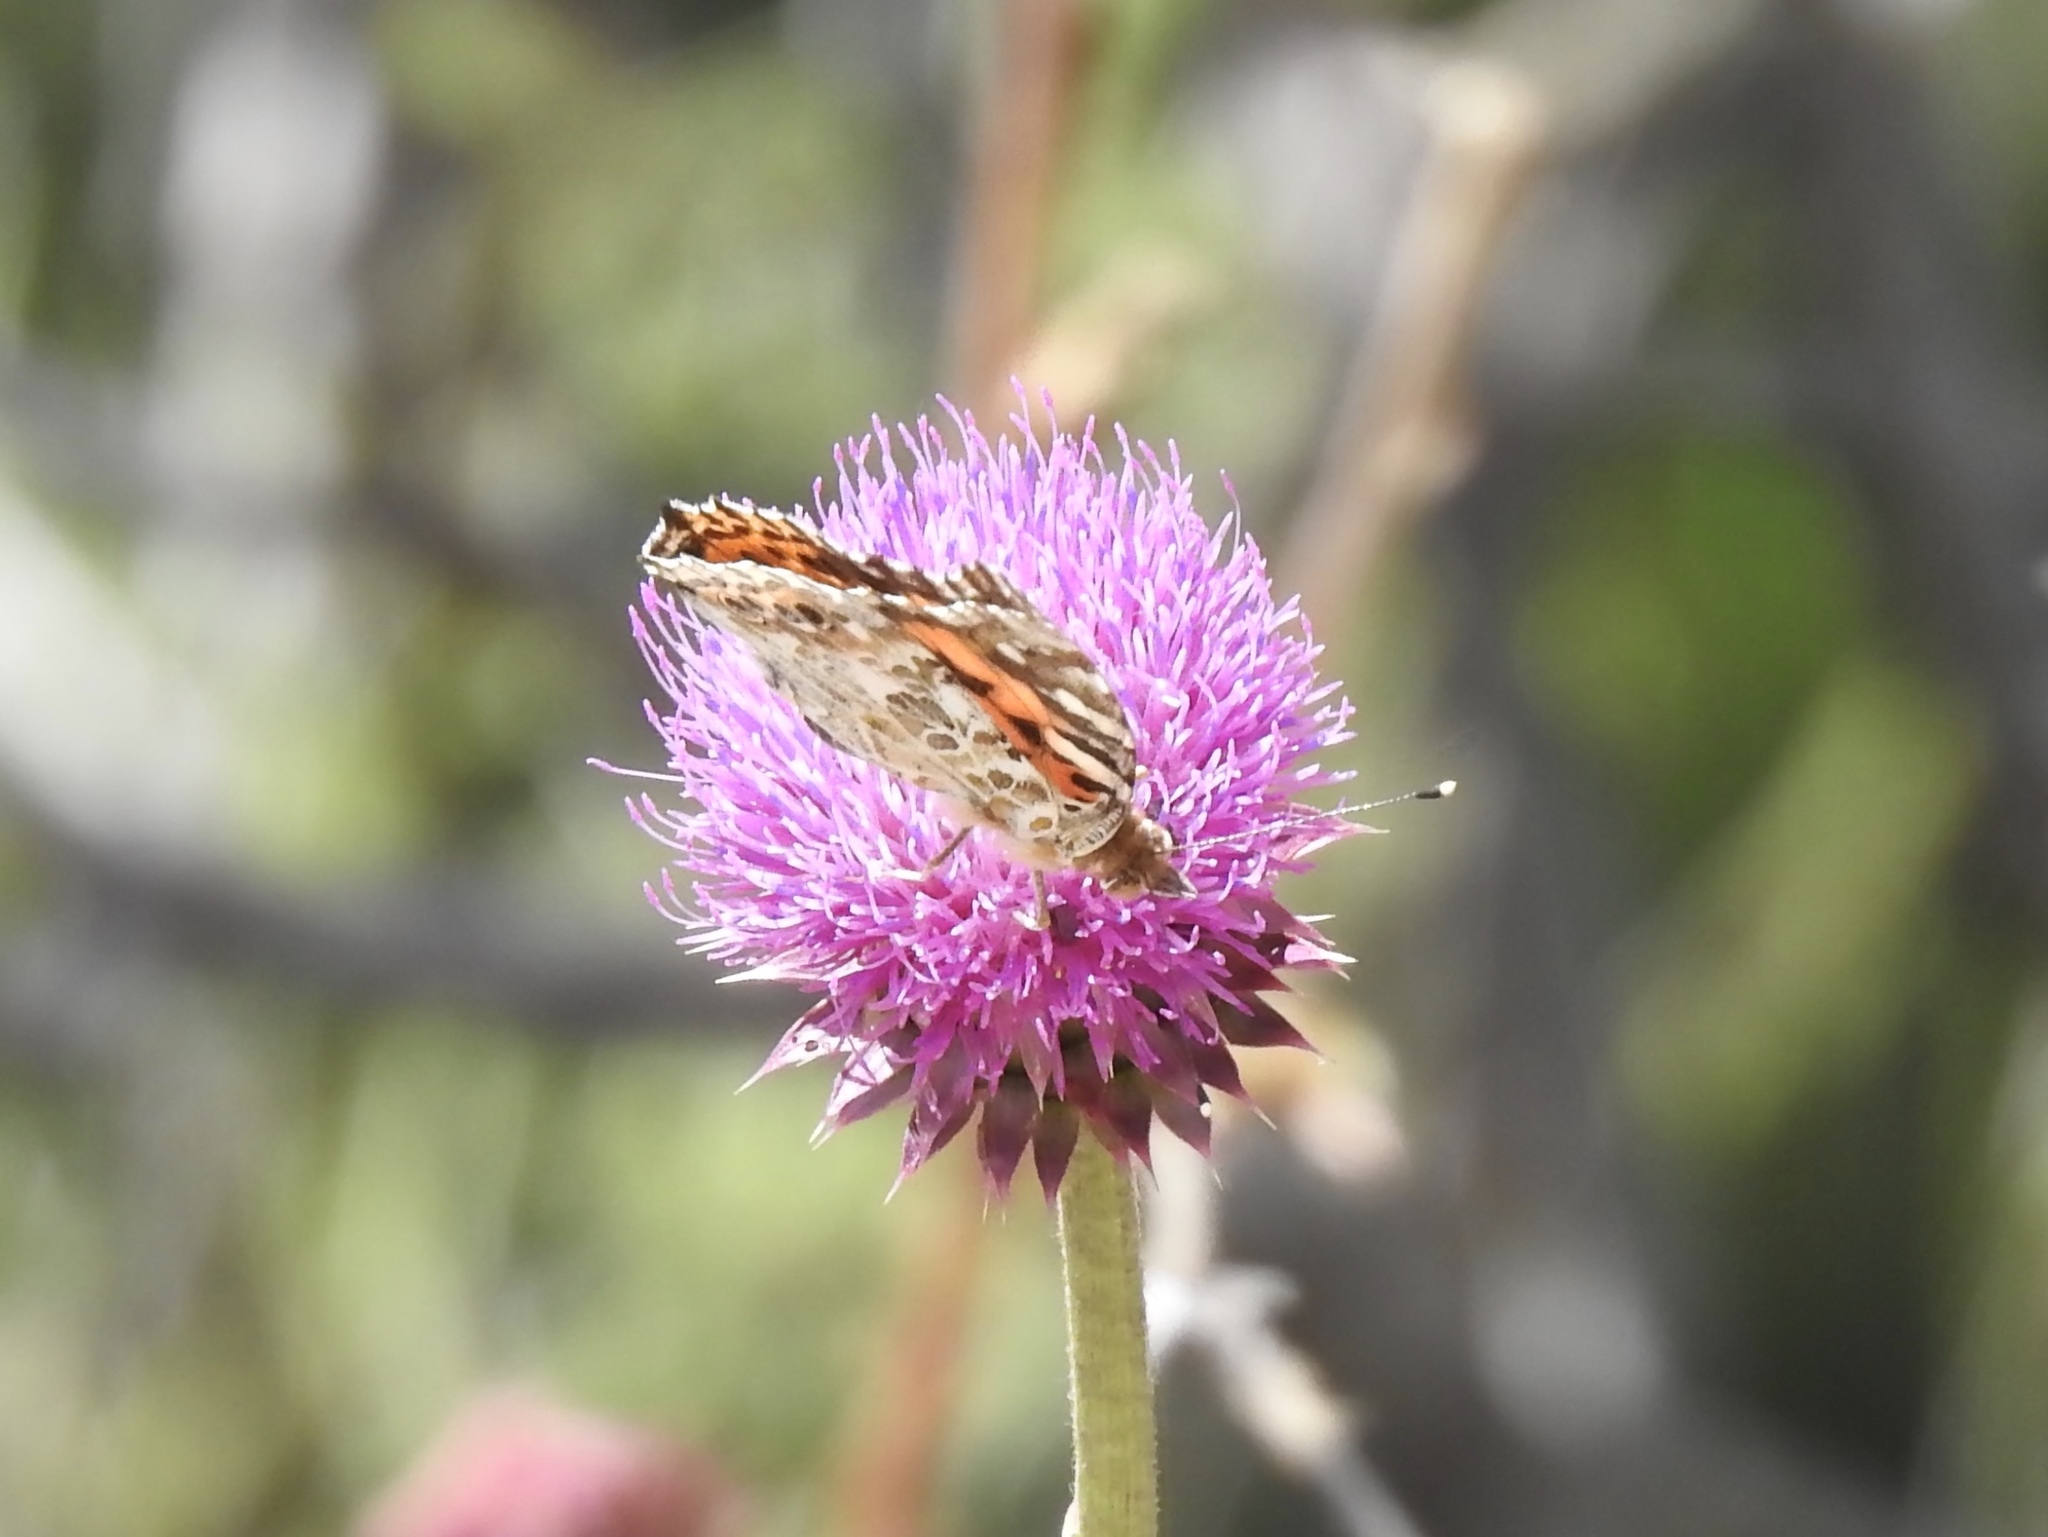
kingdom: Animalia
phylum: Arthropoda
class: Insecta
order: Lepidoptera
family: Nymphalidae
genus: Vanessa
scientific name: Vanessa cardui
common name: Painted lady
